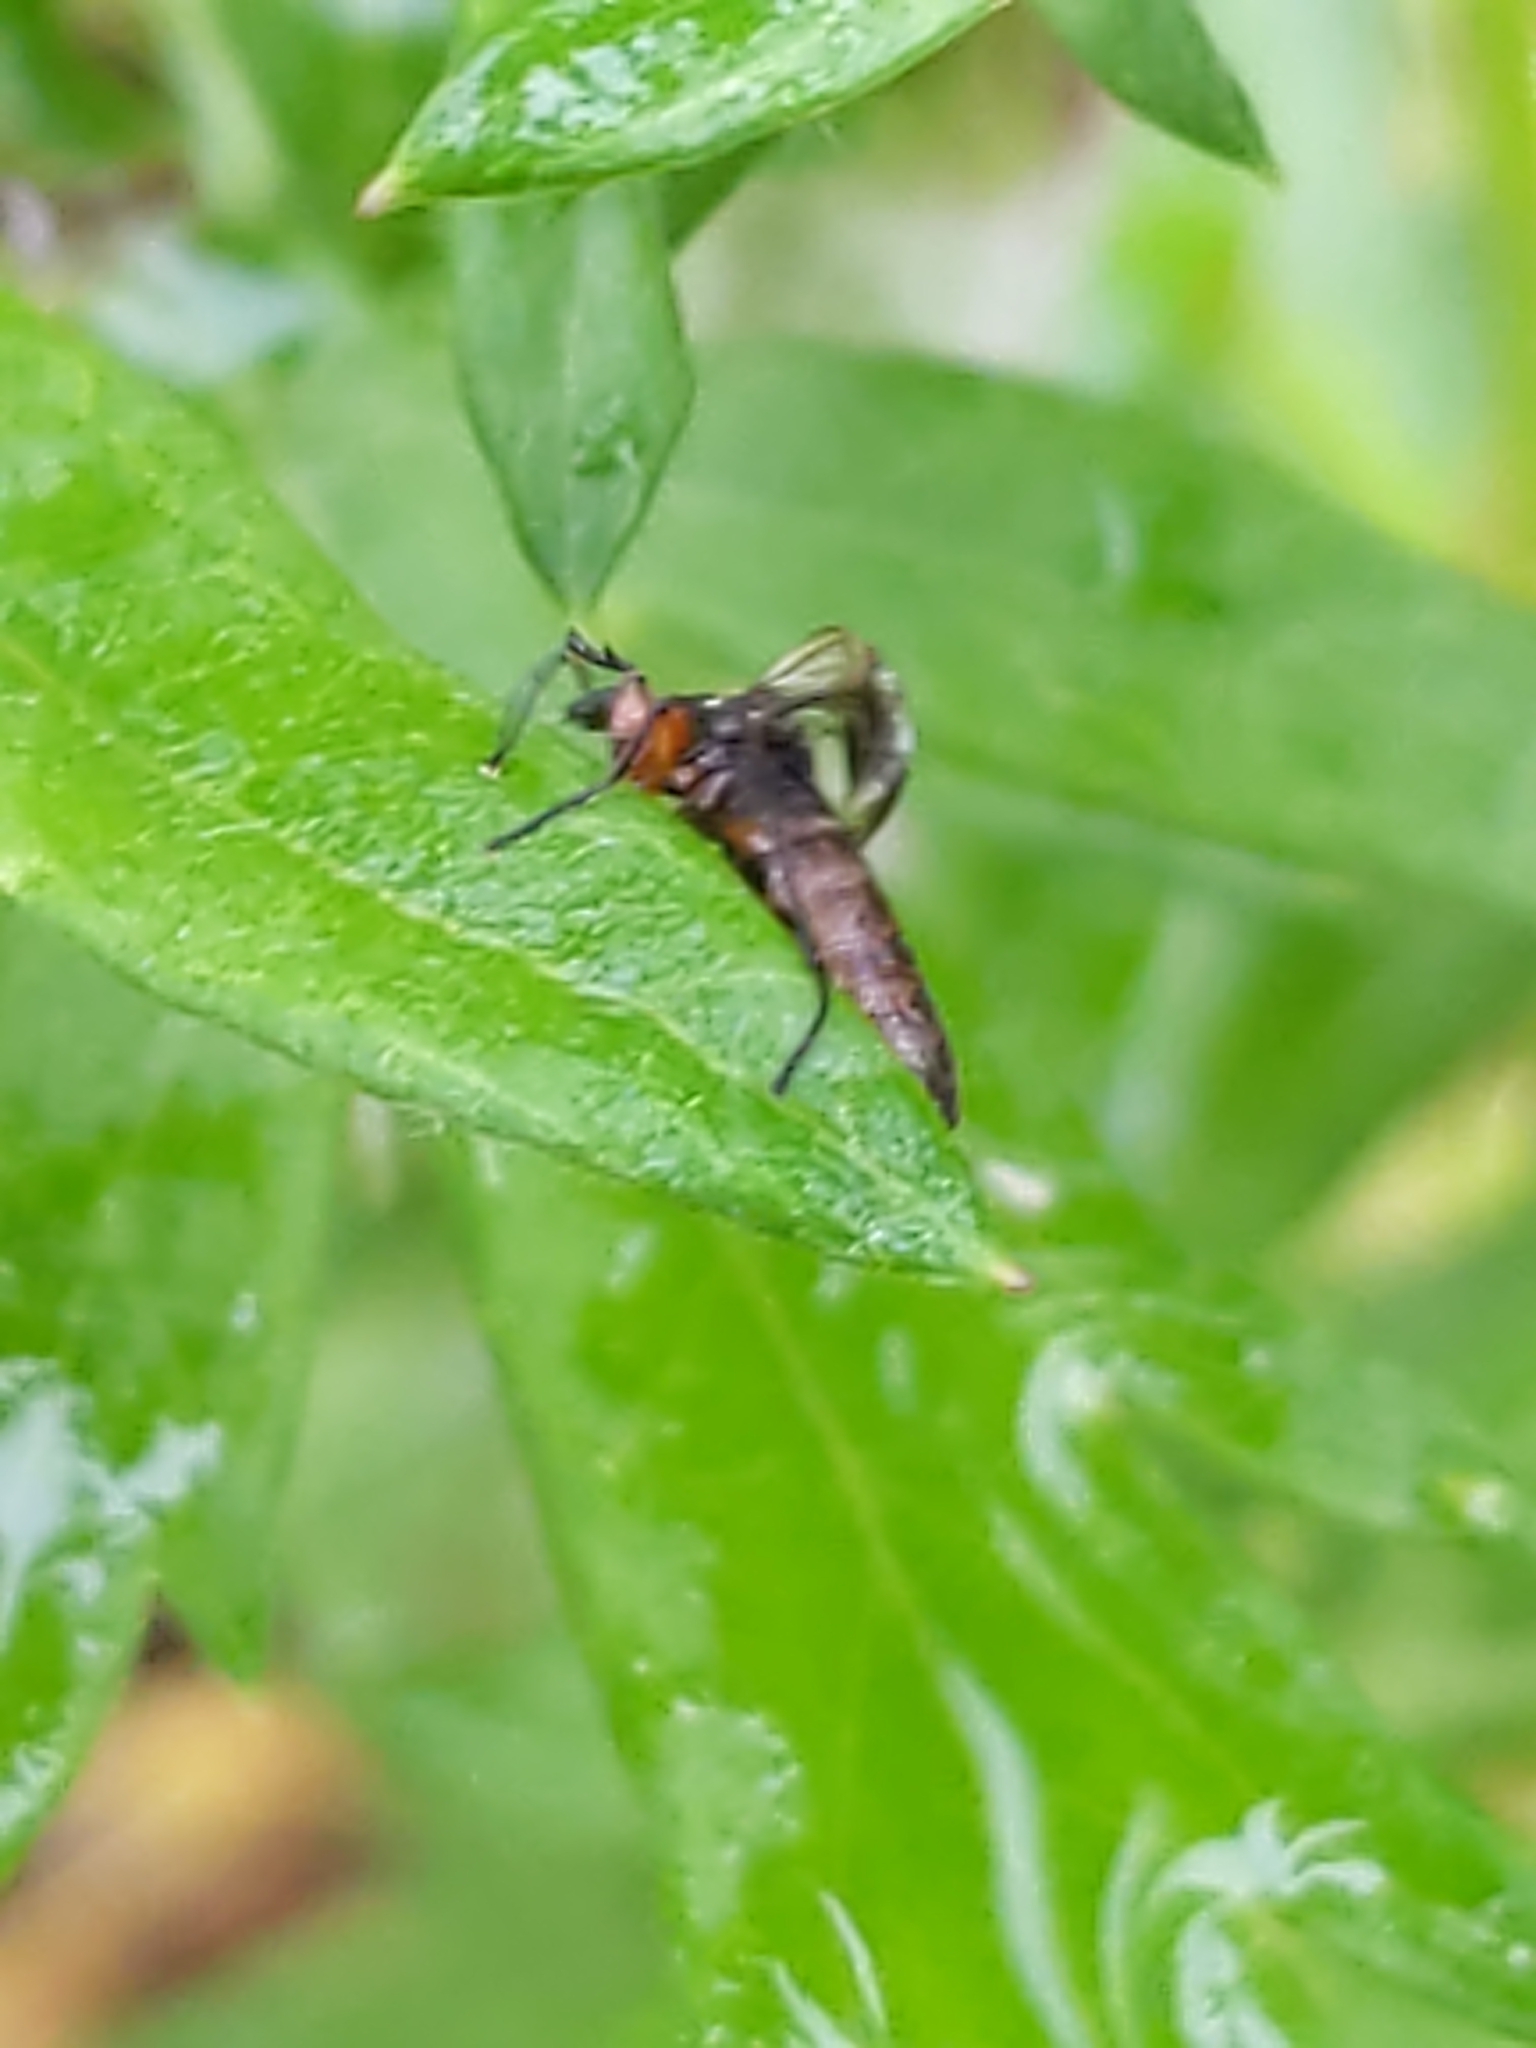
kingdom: Animalia
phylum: Arthropoda
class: Insecta
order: Diptera
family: Bibionidae
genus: Dilophus
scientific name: Dilophus
